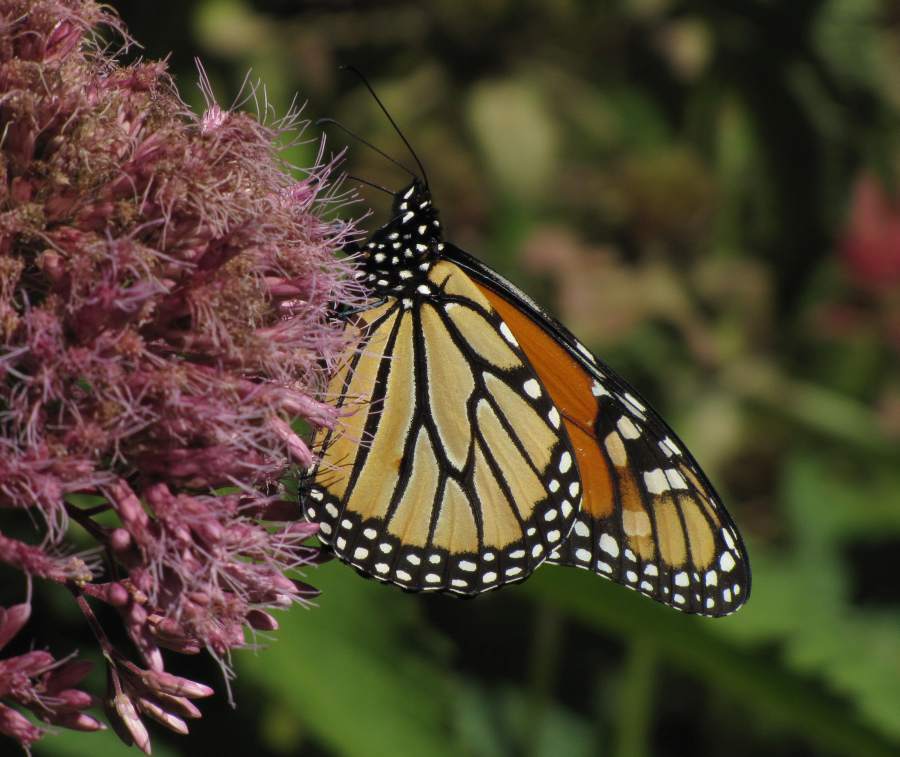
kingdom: Animalia
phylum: Arthropoda
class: Insecta
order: Lepidoptera
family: Nymphalidae
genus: Danaus
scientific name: Danaus plexippus
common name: Monarch
